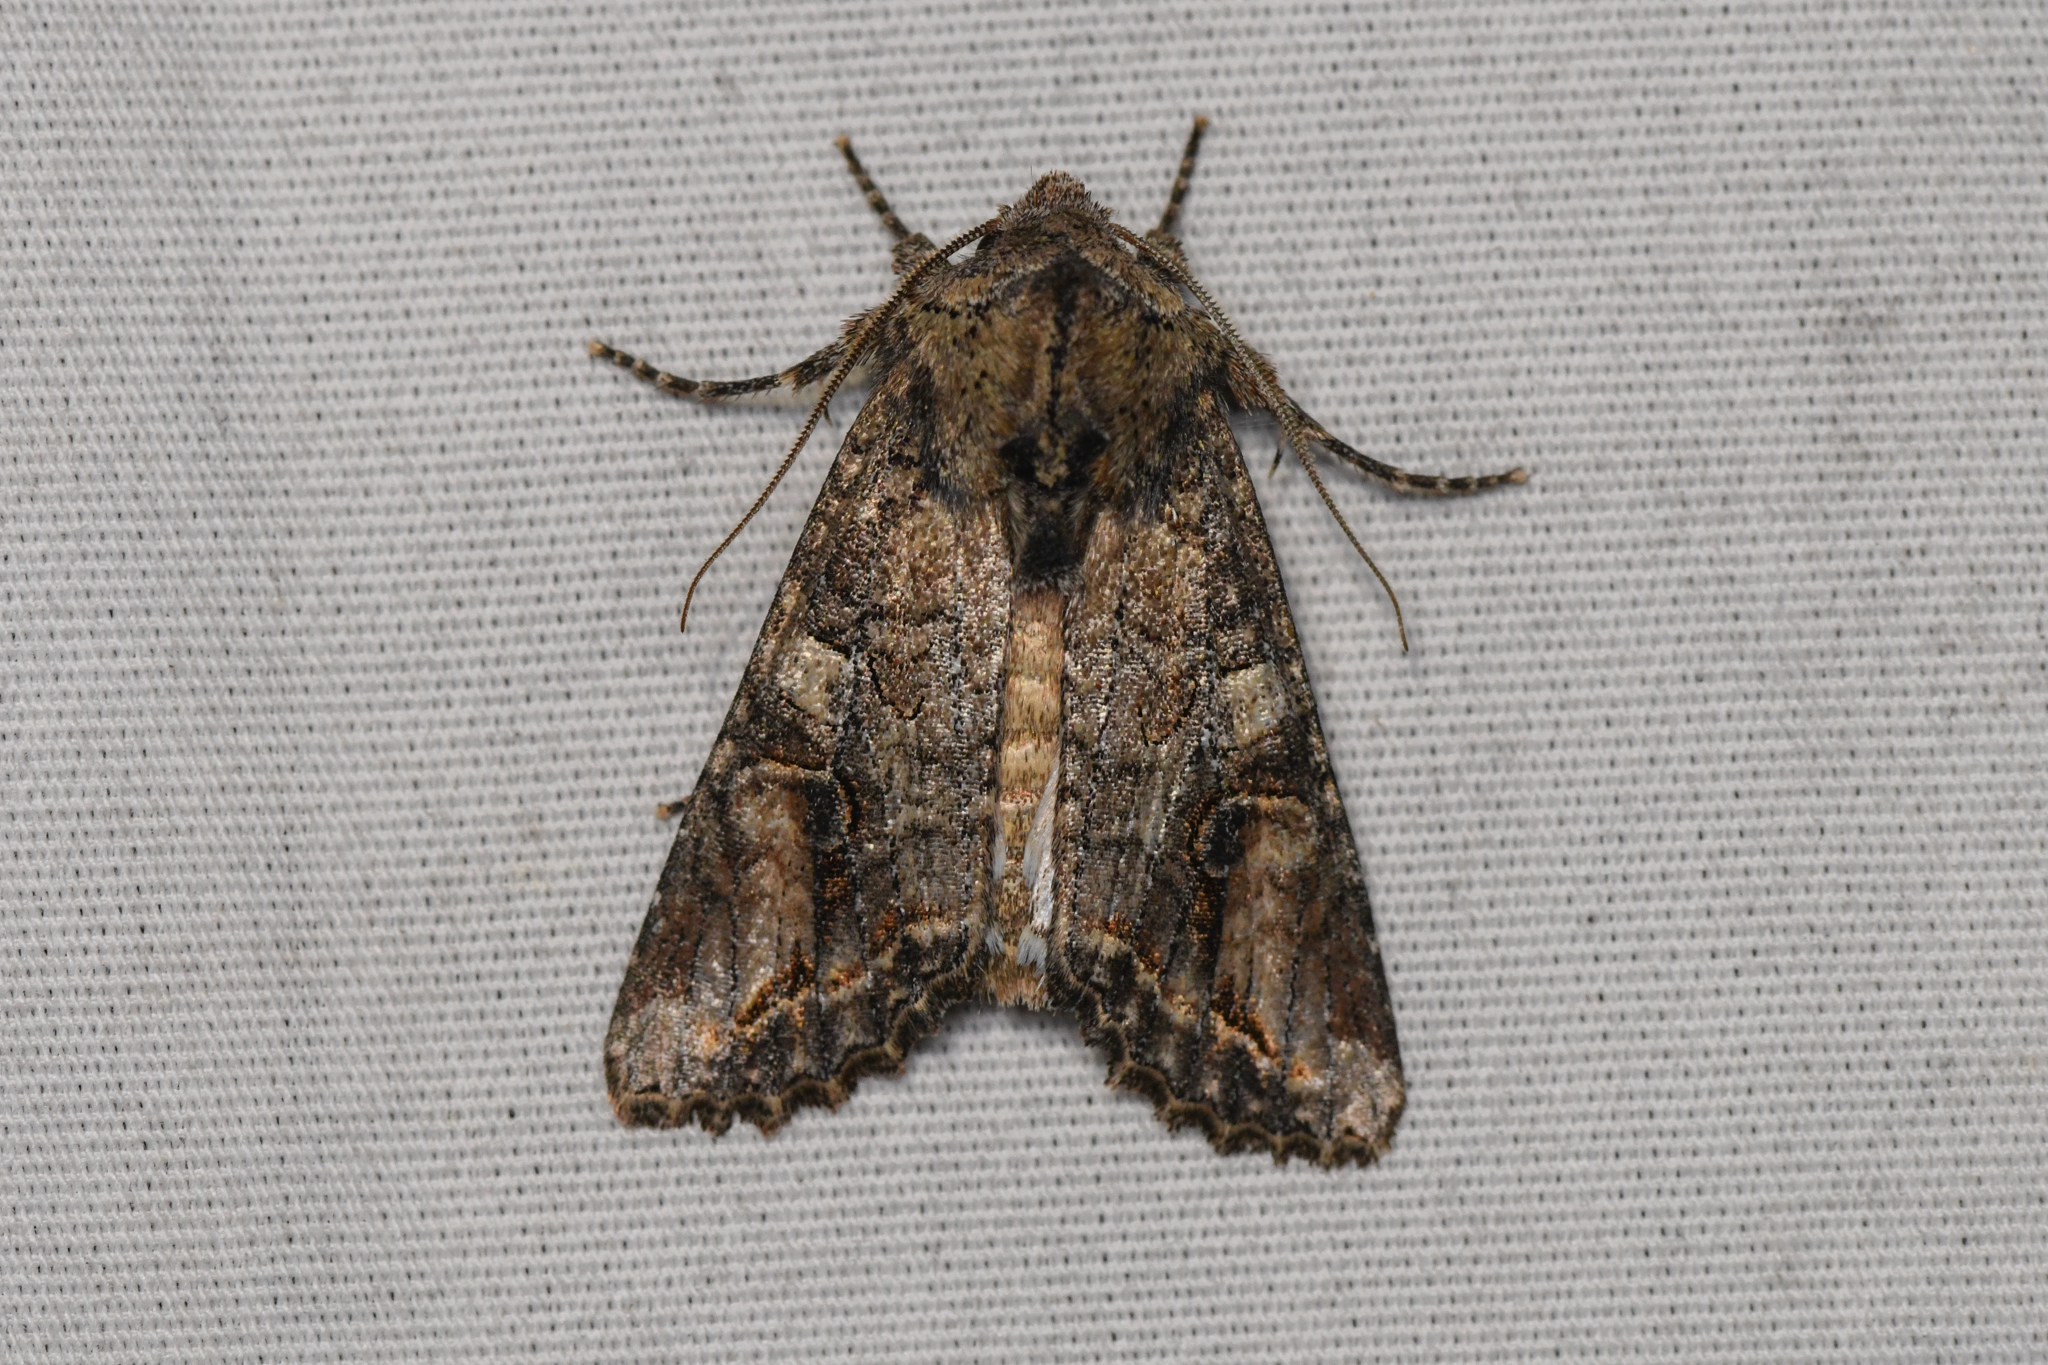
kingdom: Animalia
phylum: Arthropoda
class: Insecta
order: Lepidoptera
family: Noctuidae
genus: Egira
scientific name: Egira perlubens
